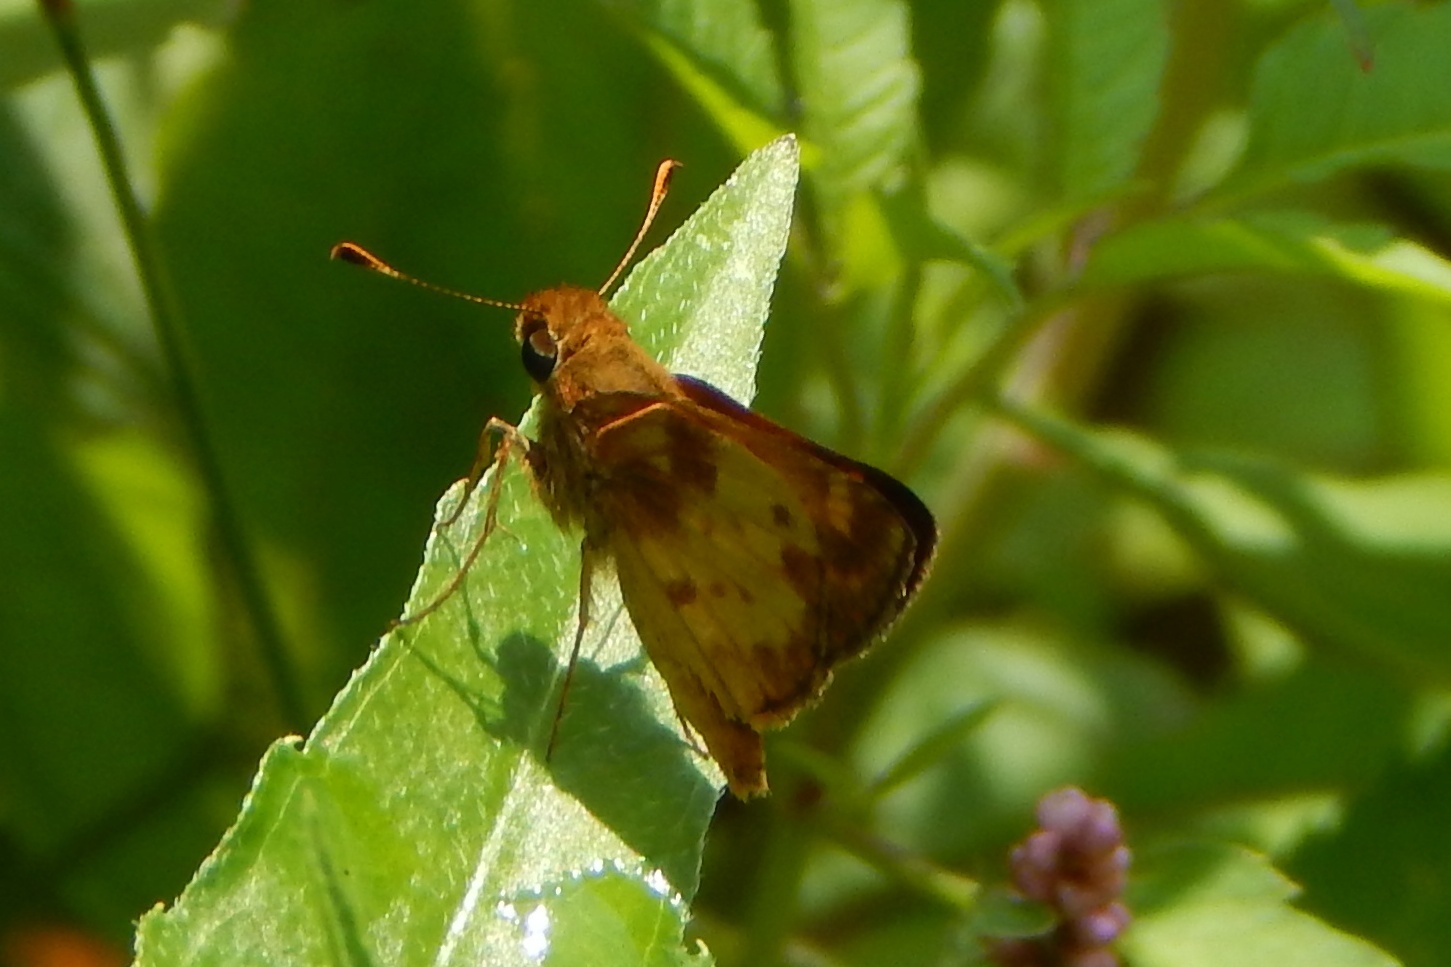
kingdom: Animalia
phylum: Arthropoda
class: Insecta
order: Lepidoptera
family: Hesperiidae
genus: Lon
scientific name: Lon zabulon
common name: Zabulon skipper
